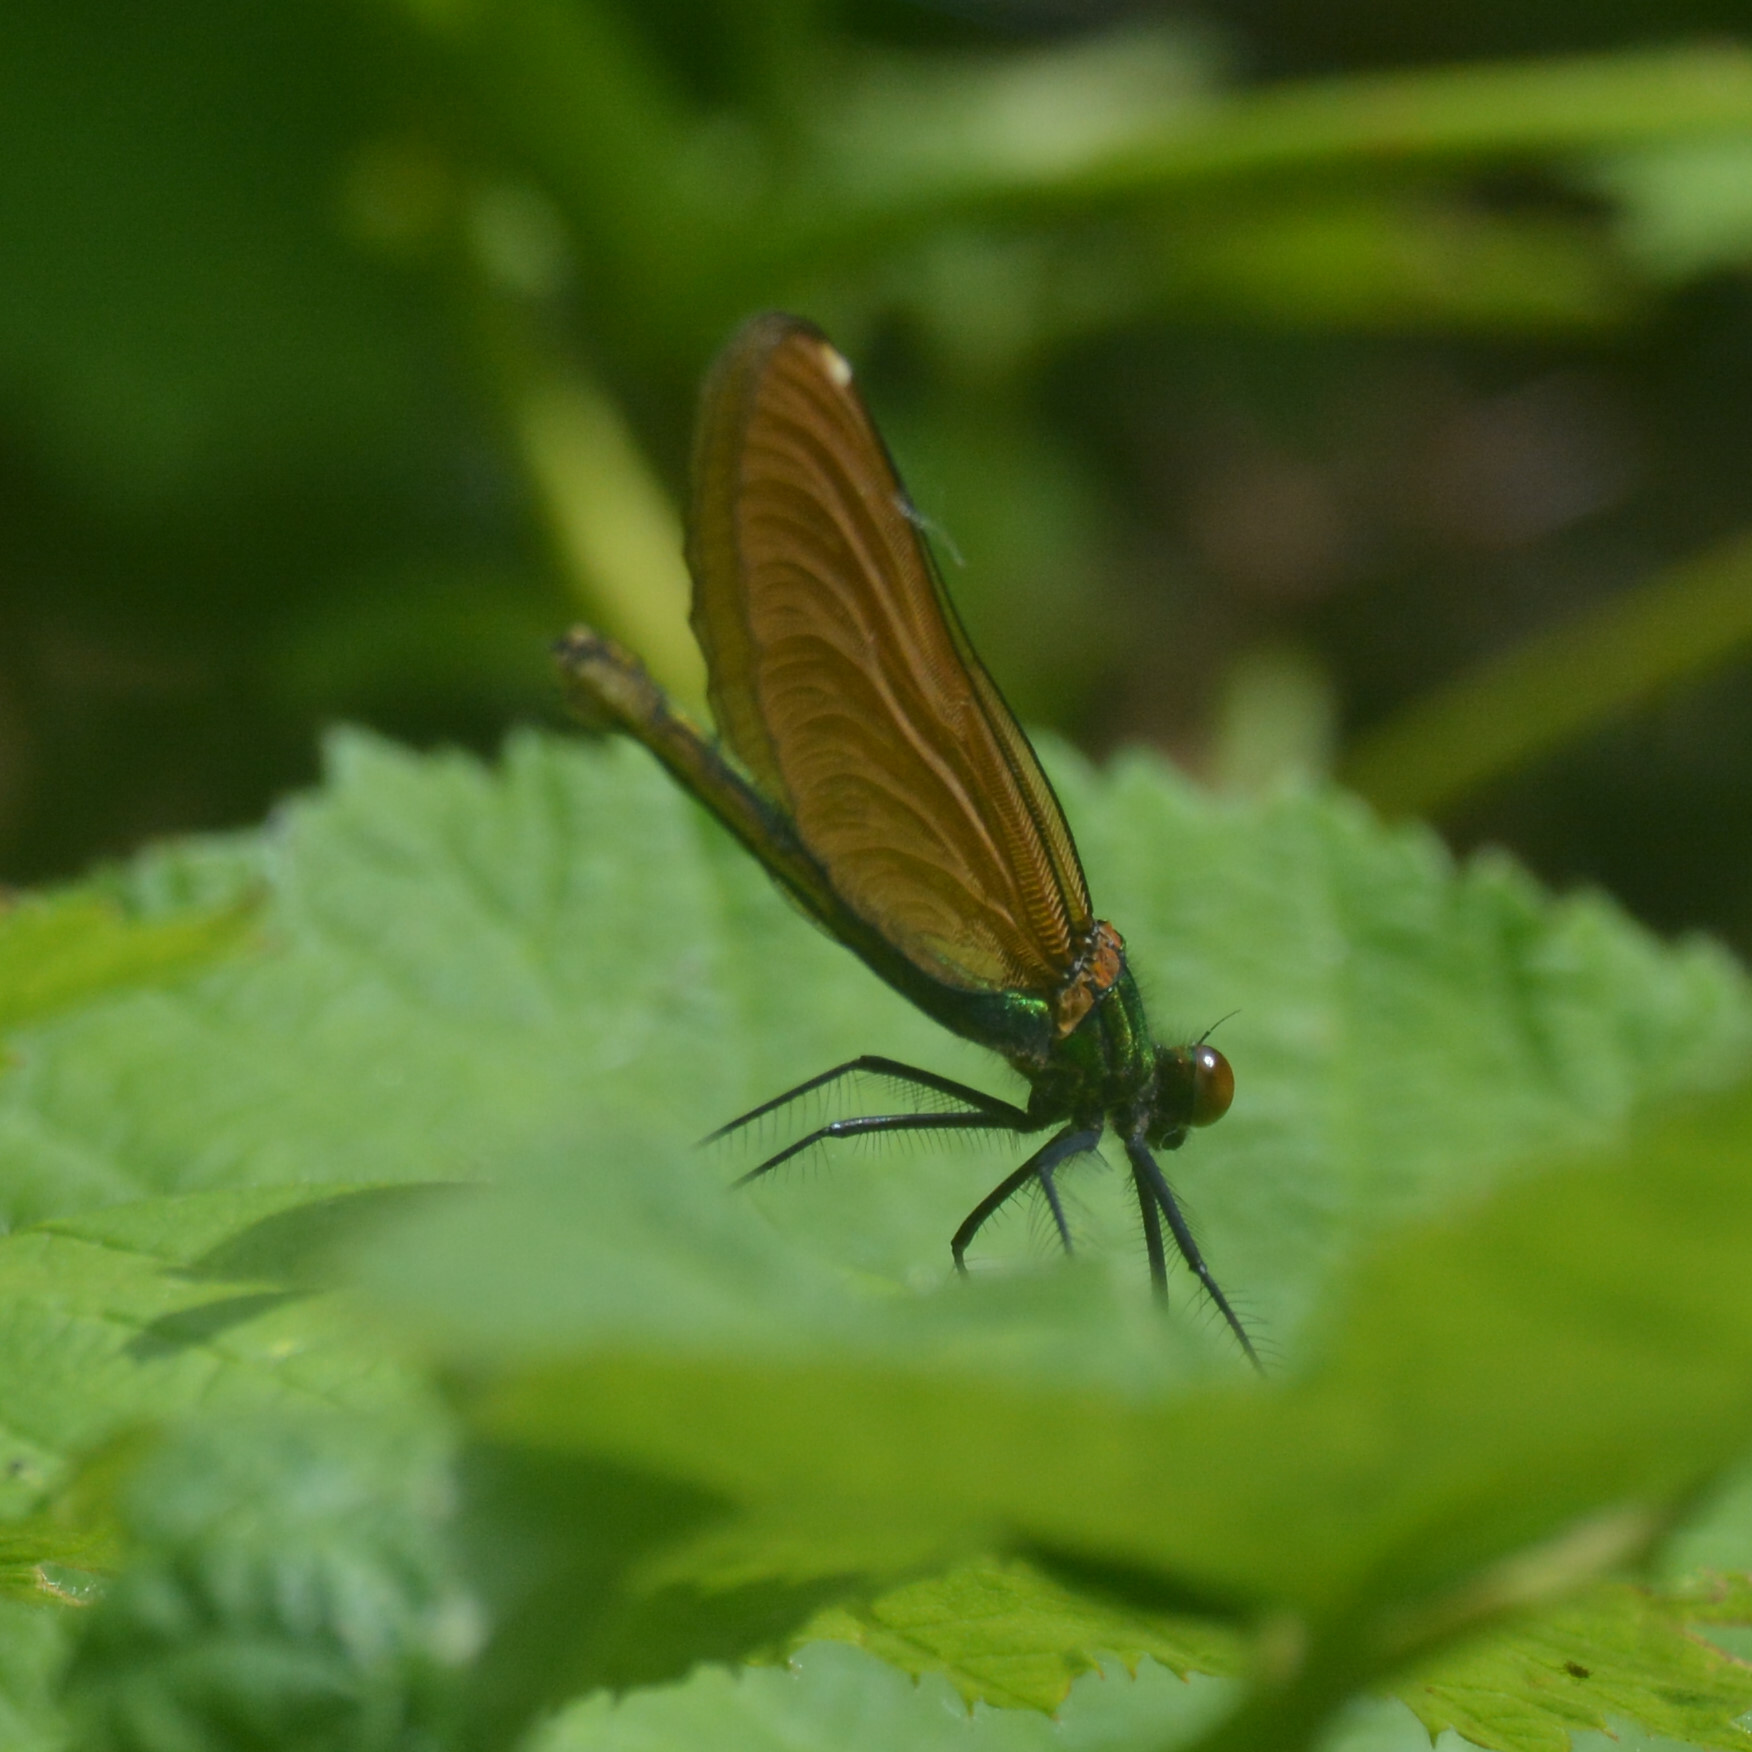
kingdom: Animalia
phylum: Arthropoda
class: Insecta
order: Odonata
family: Calopterygidae
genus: Calopteryx
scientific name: Calopteryx virgo
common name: Beautiful demoiselle
